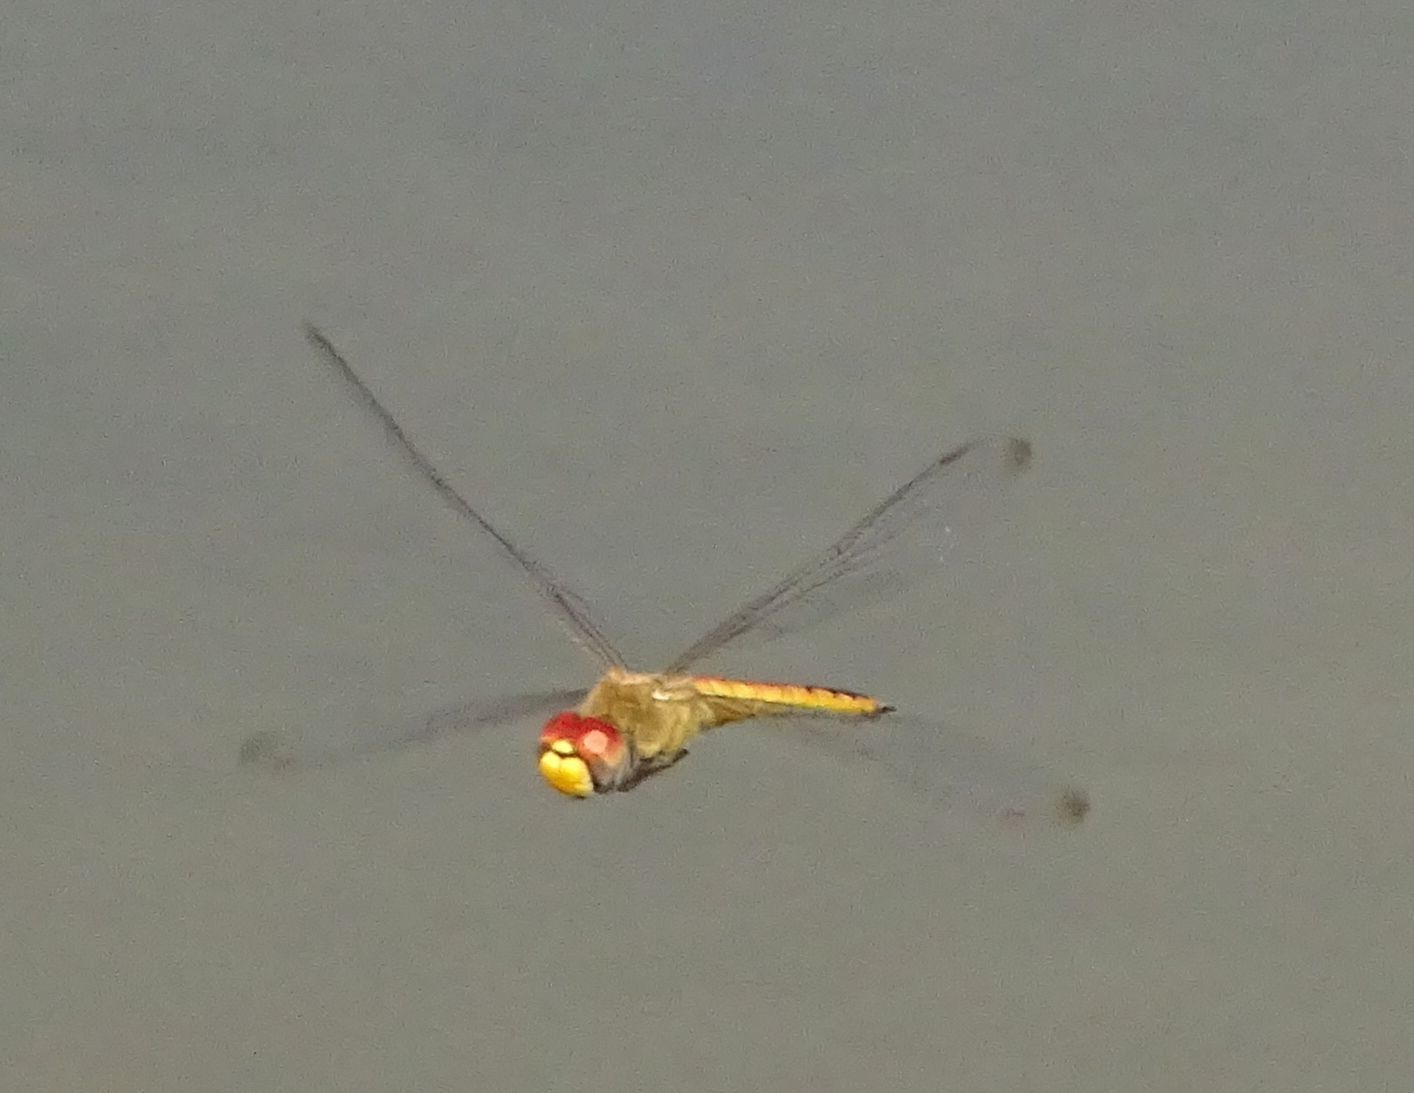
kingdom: Animalia
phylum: Arthropoda
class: Insecta
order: Odonata
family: Libellulidae
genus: Pantala
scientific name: Pantala flavescens
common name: Wandering glider
